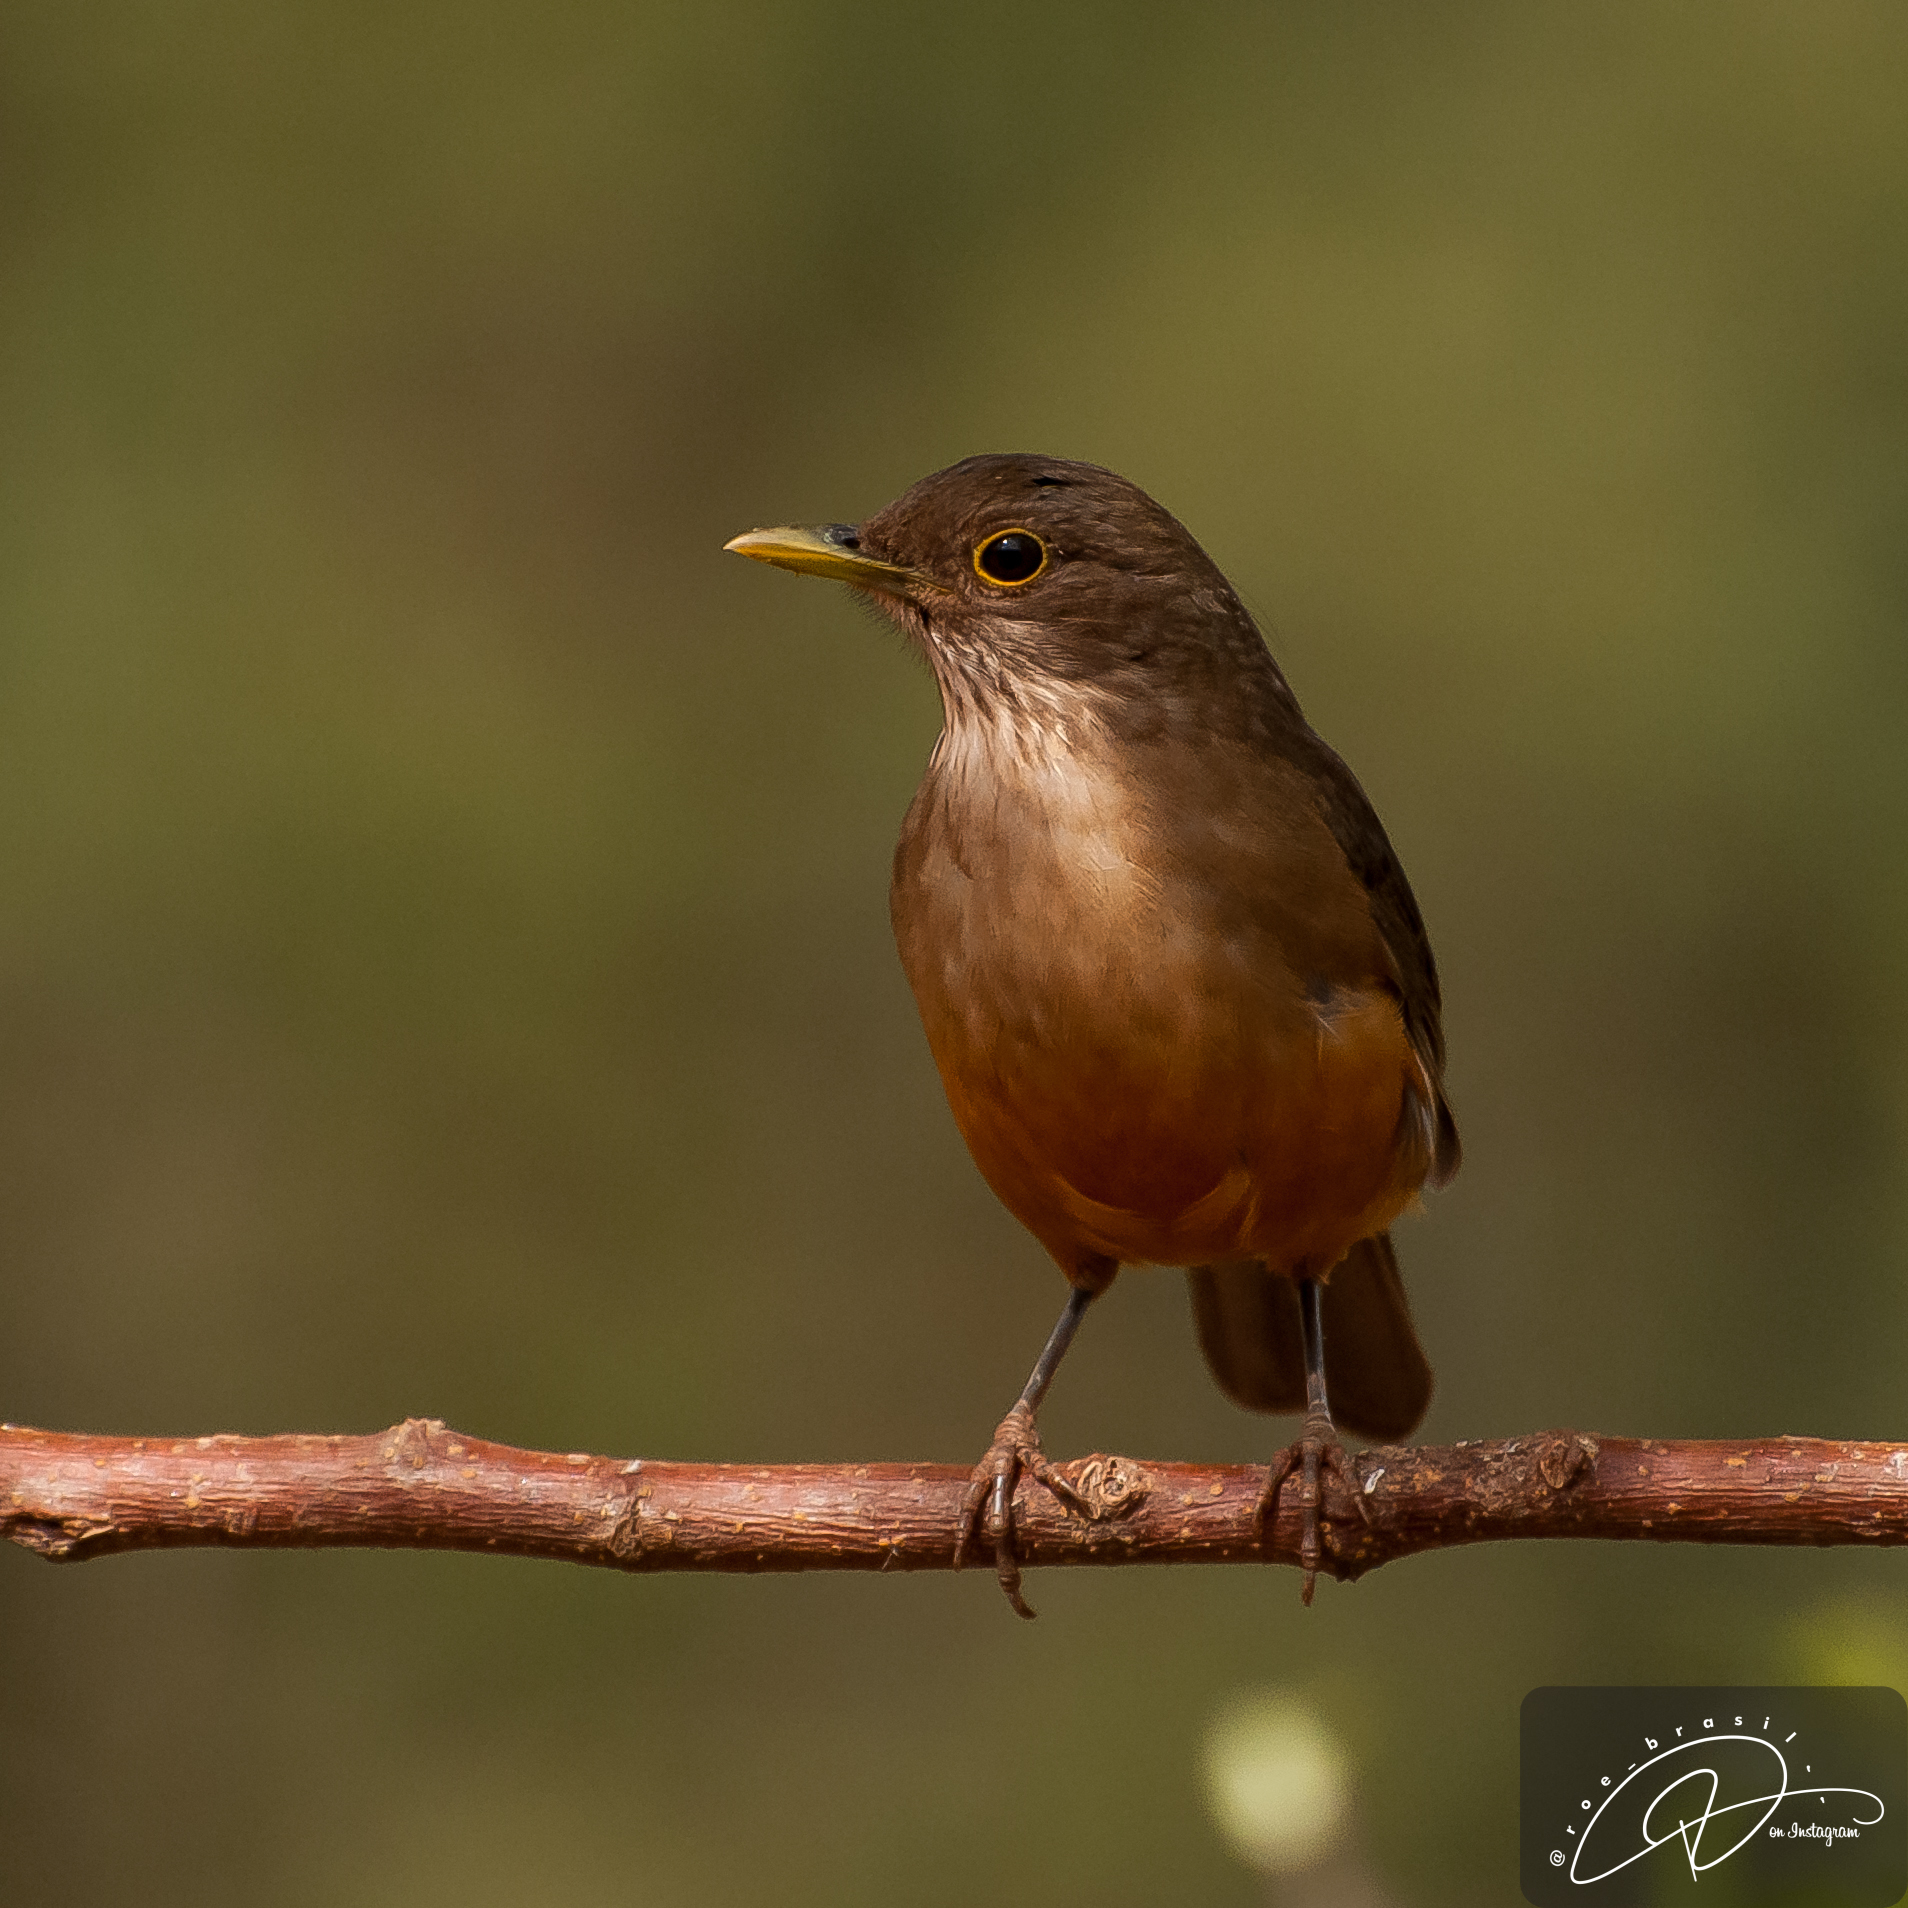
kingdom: Animalia
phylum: Chordata
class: Aves
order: Passeriformes
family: Turdidae
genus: Turdus
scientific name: Turdus rufiventris
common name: Rufous-bellied thrush
